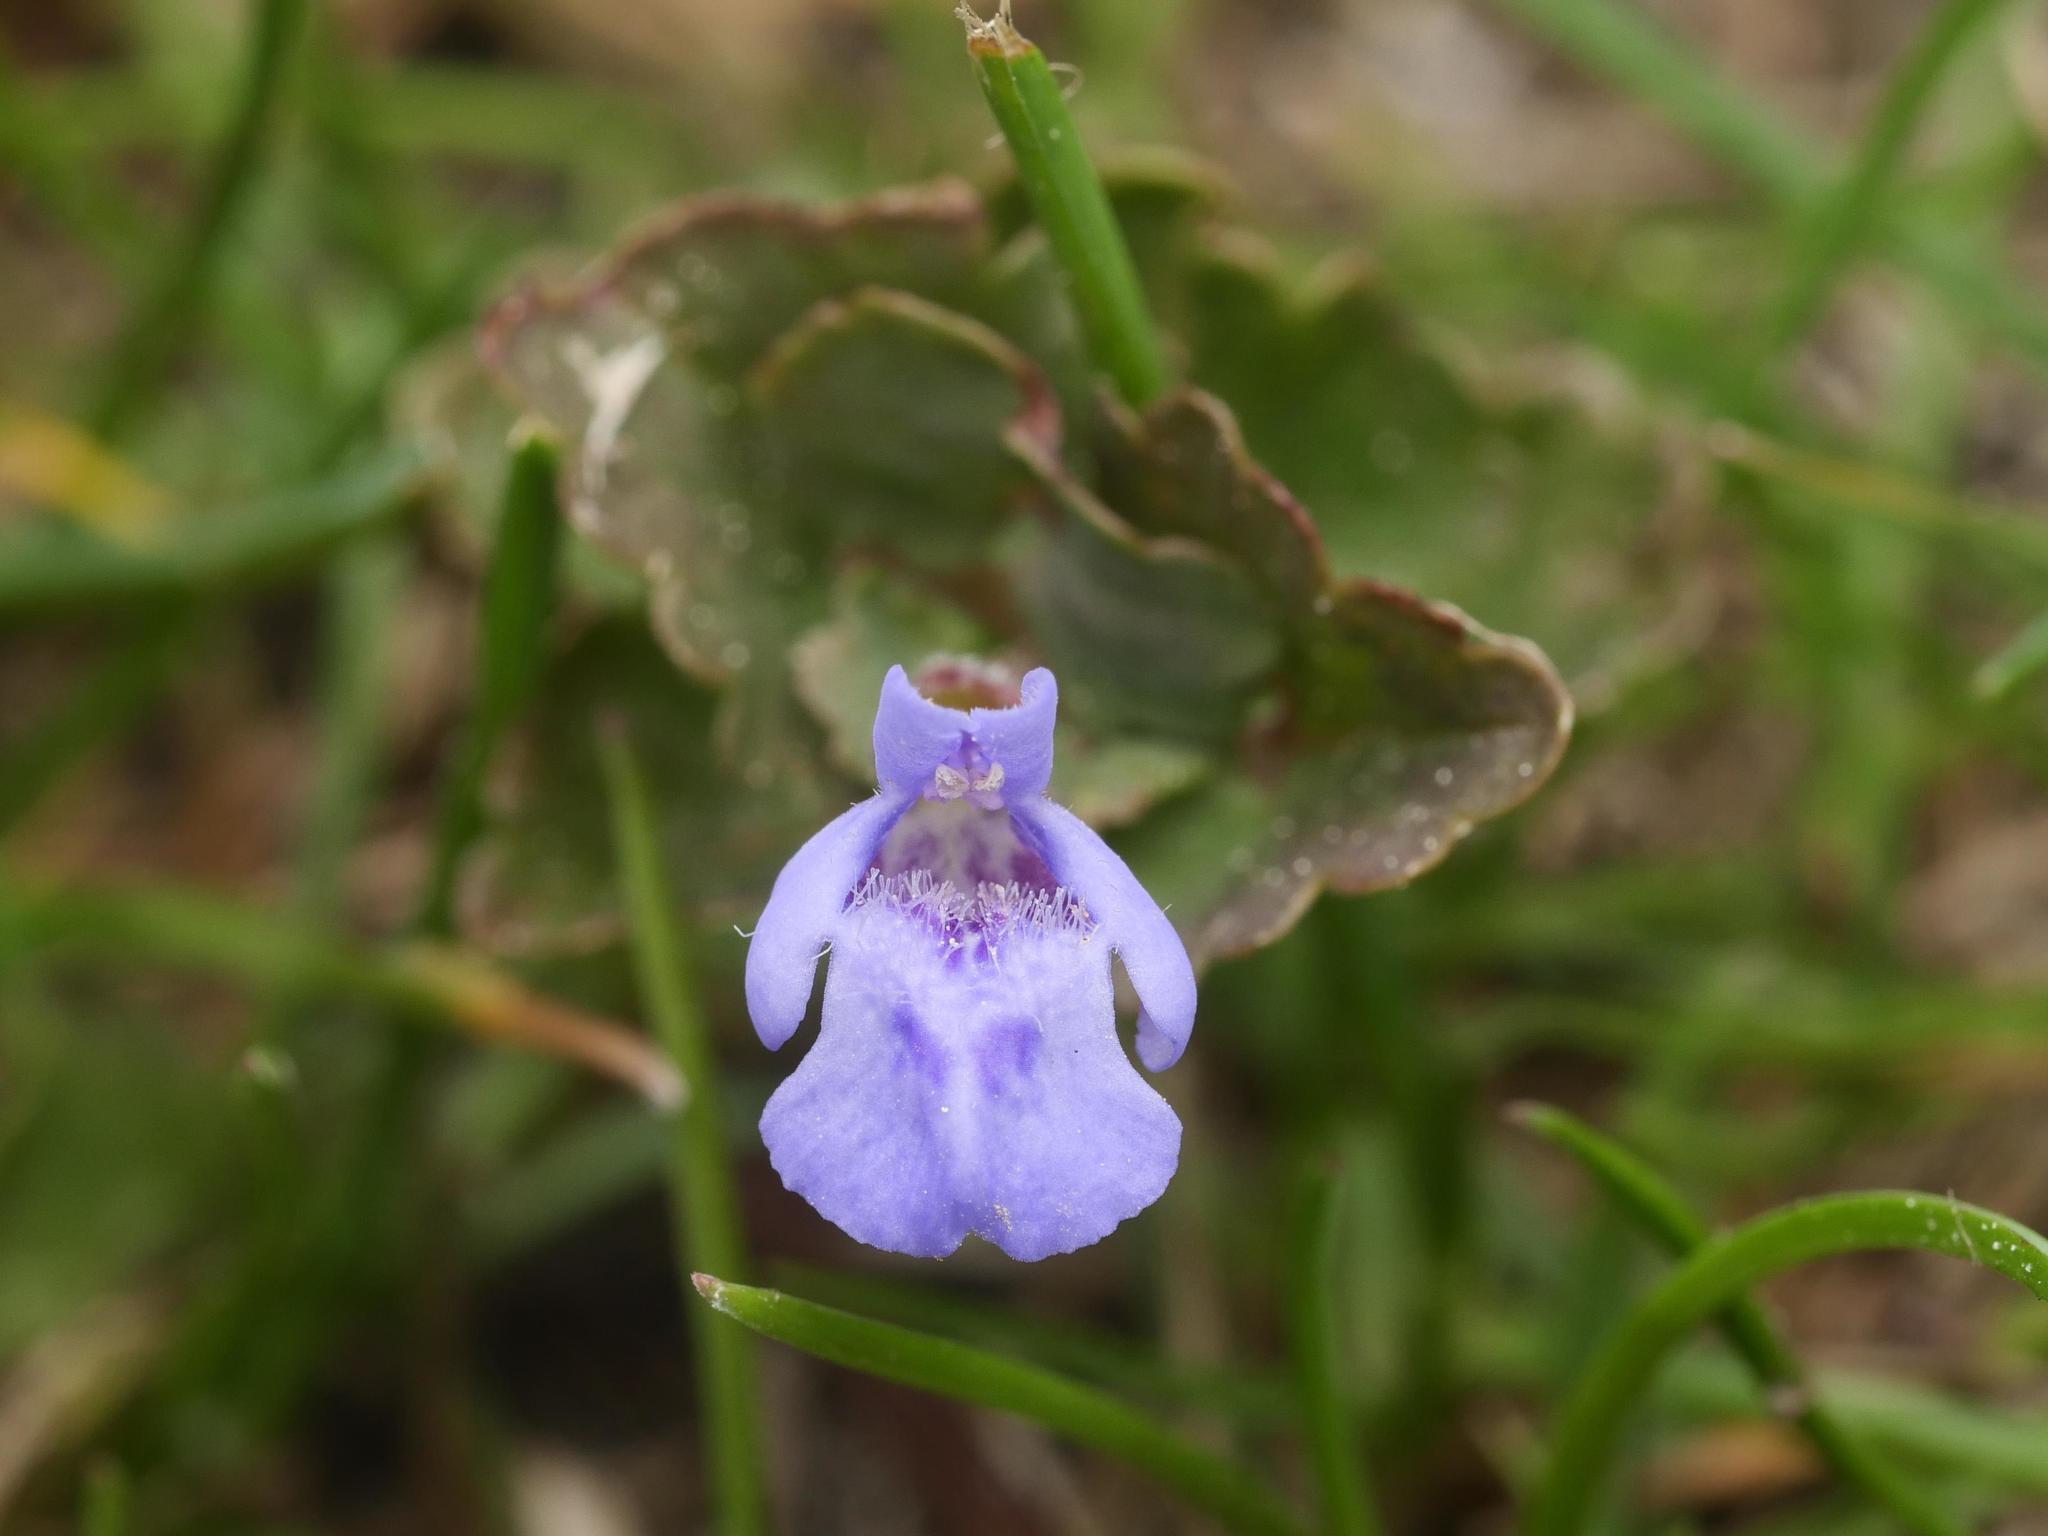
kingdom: Plantae
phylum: Tracheophyta
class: Magnoliopsida
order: Lamiales
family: Lamiaceae
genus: Glechoma
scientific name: Glechoma hederacea
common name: Ground ivy
